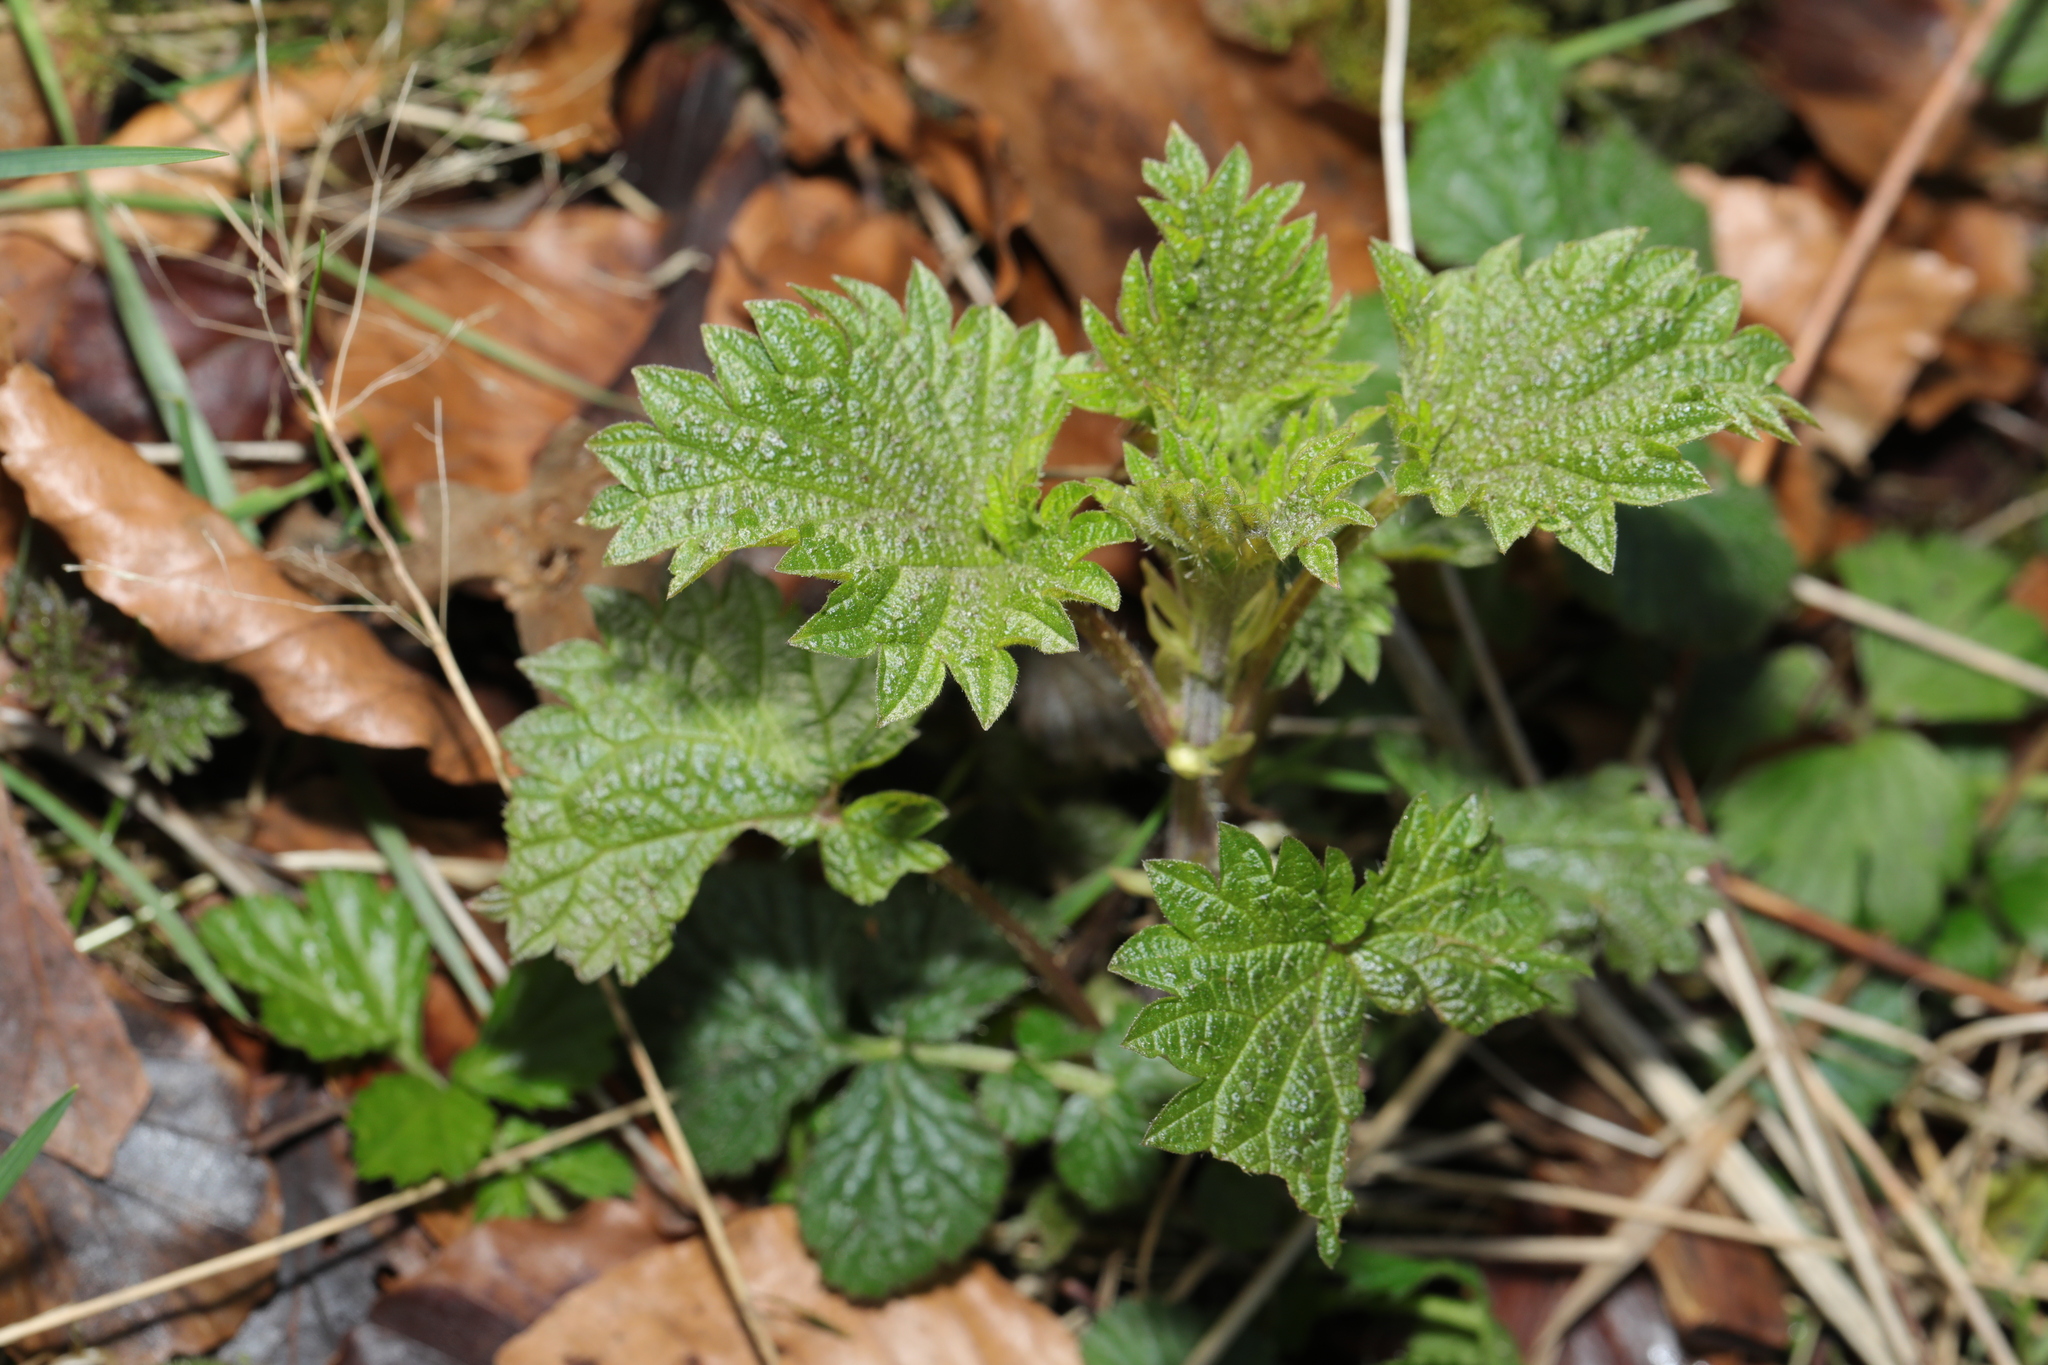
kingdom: Plantae
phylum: Tracheophyta
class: Magnoliopsida
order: Rosales
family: Urticaceae
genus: Urtica
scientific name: Urtica dioica
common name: Common nettle
